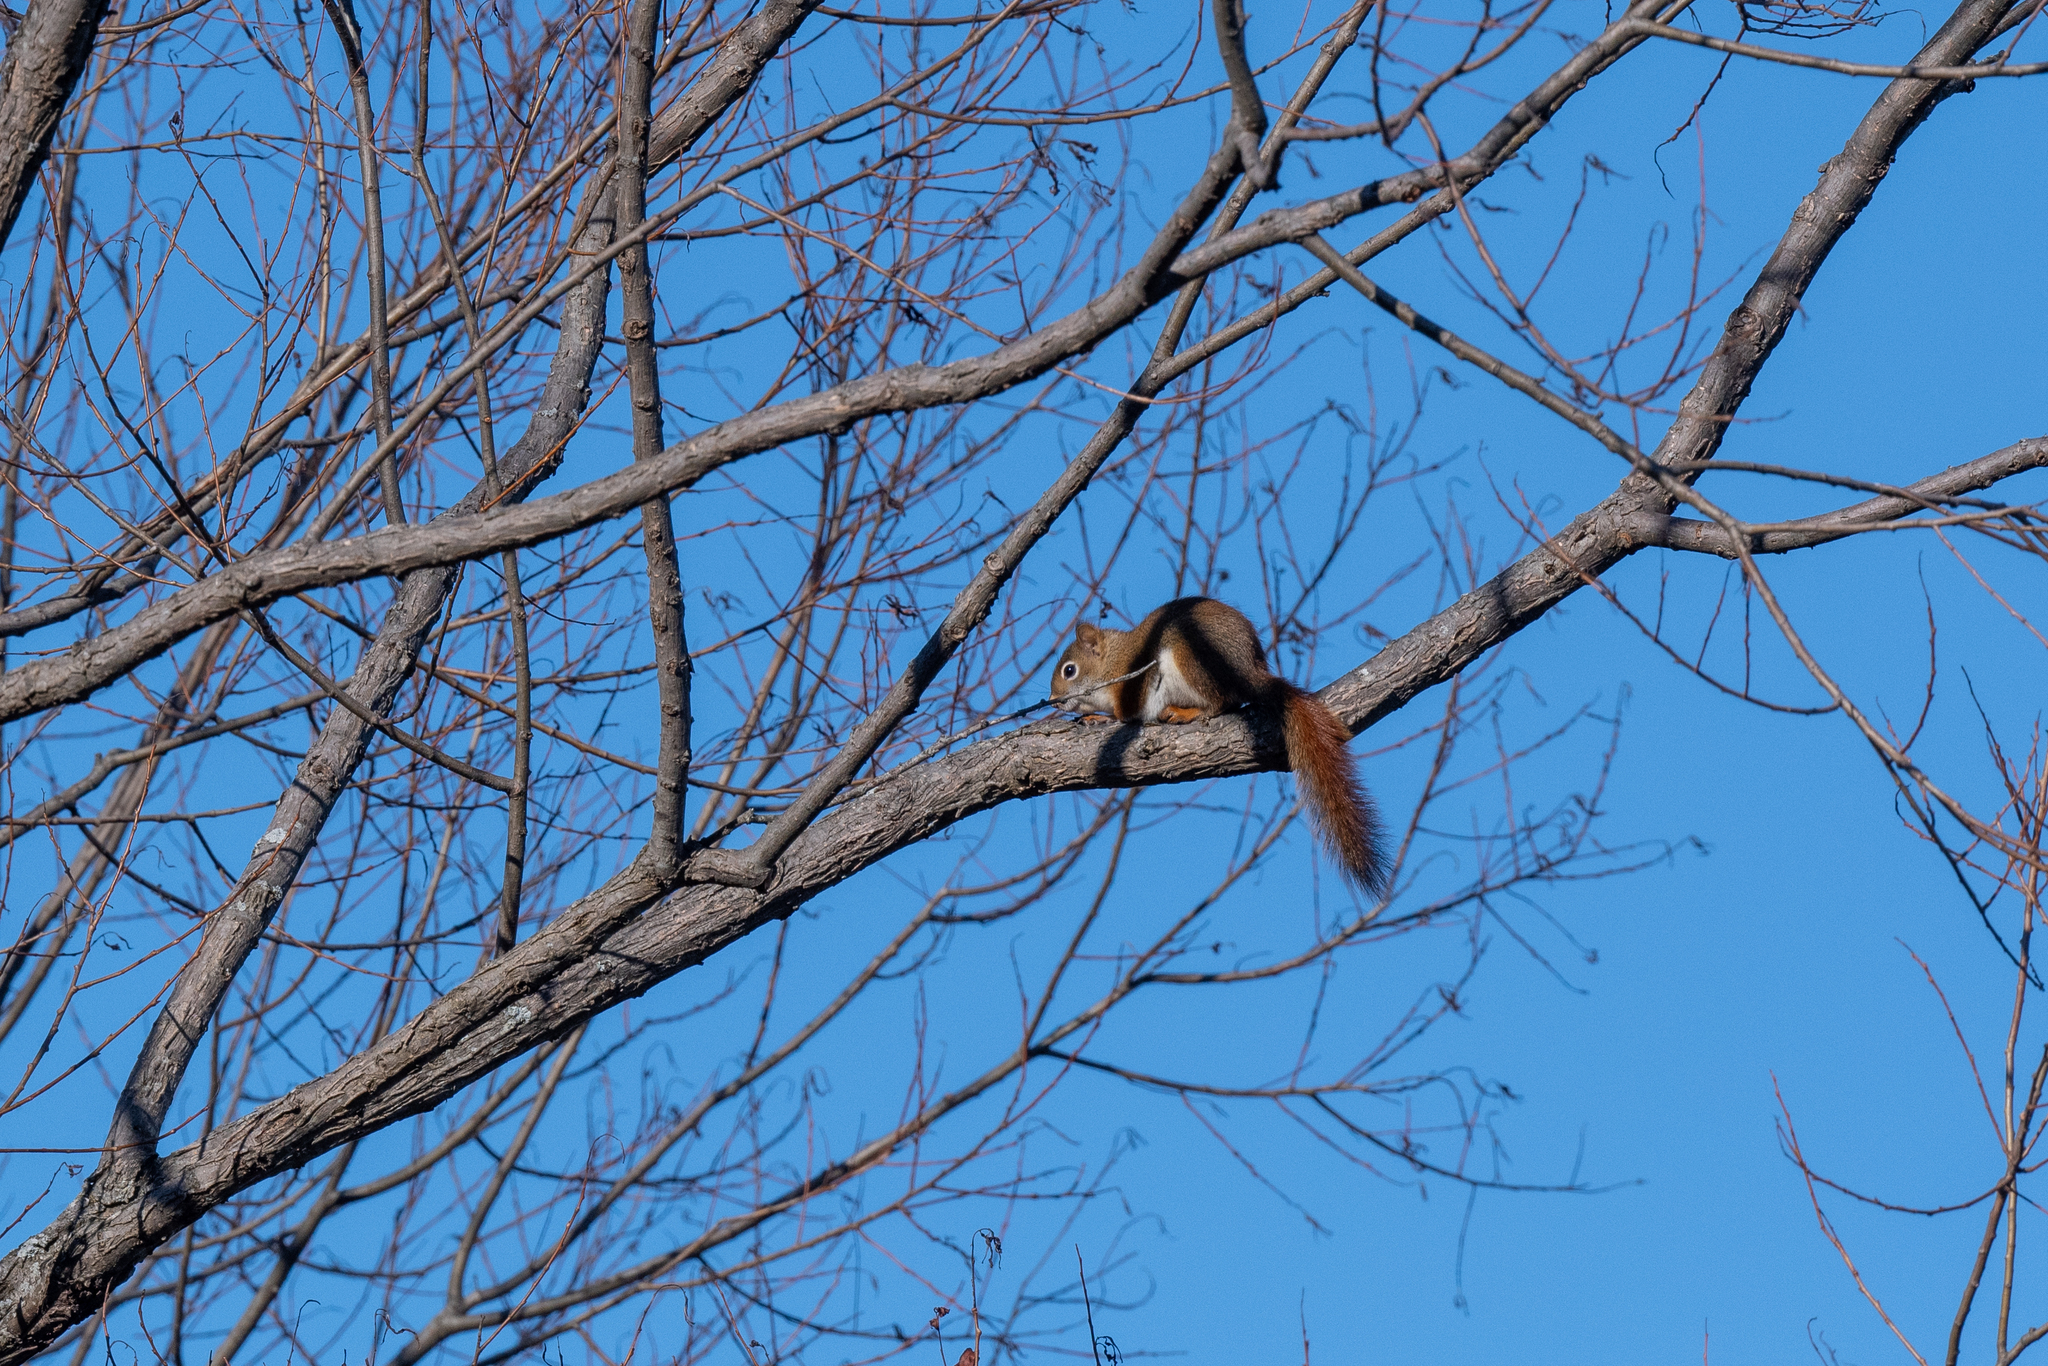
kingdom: Animalia
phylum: Chordata
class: Mammalia
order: Rodentia
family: Sciuridae
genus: Tamiasciurus
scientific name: Tamiasciurus hudsonicus
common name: Red squirrel
